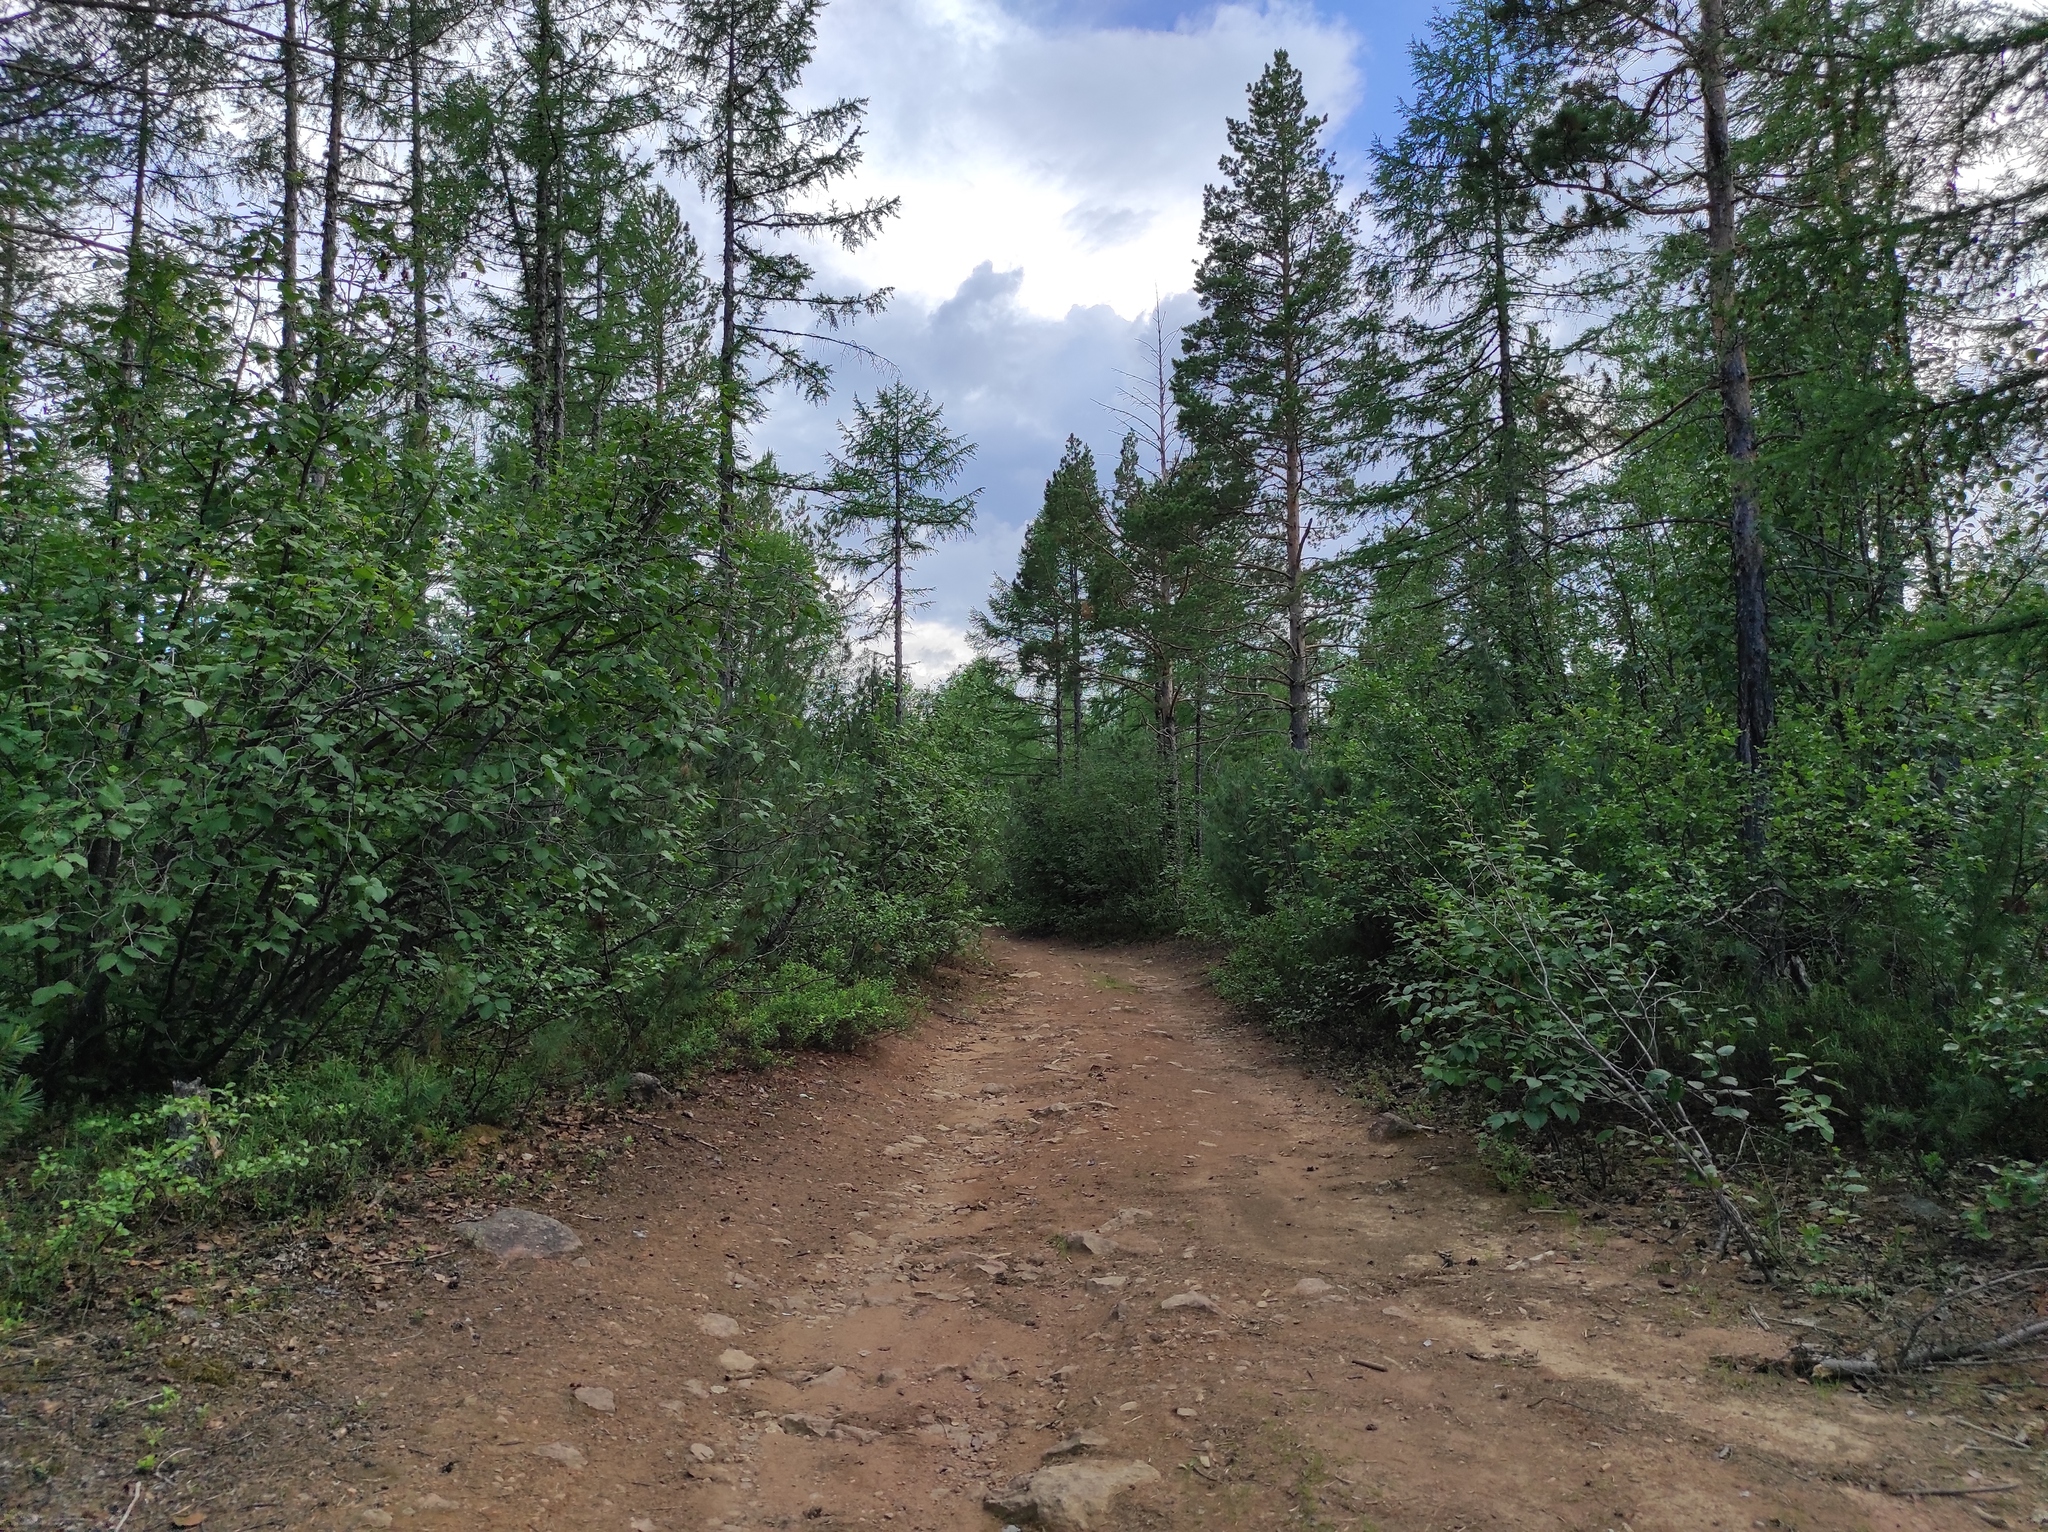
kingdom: Plantae
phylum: Tracheophyta
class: Magnoliopsida
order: Fagales
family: Betulaceae
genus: Alnus
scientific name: Alnus alnobetula
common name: Green alder
